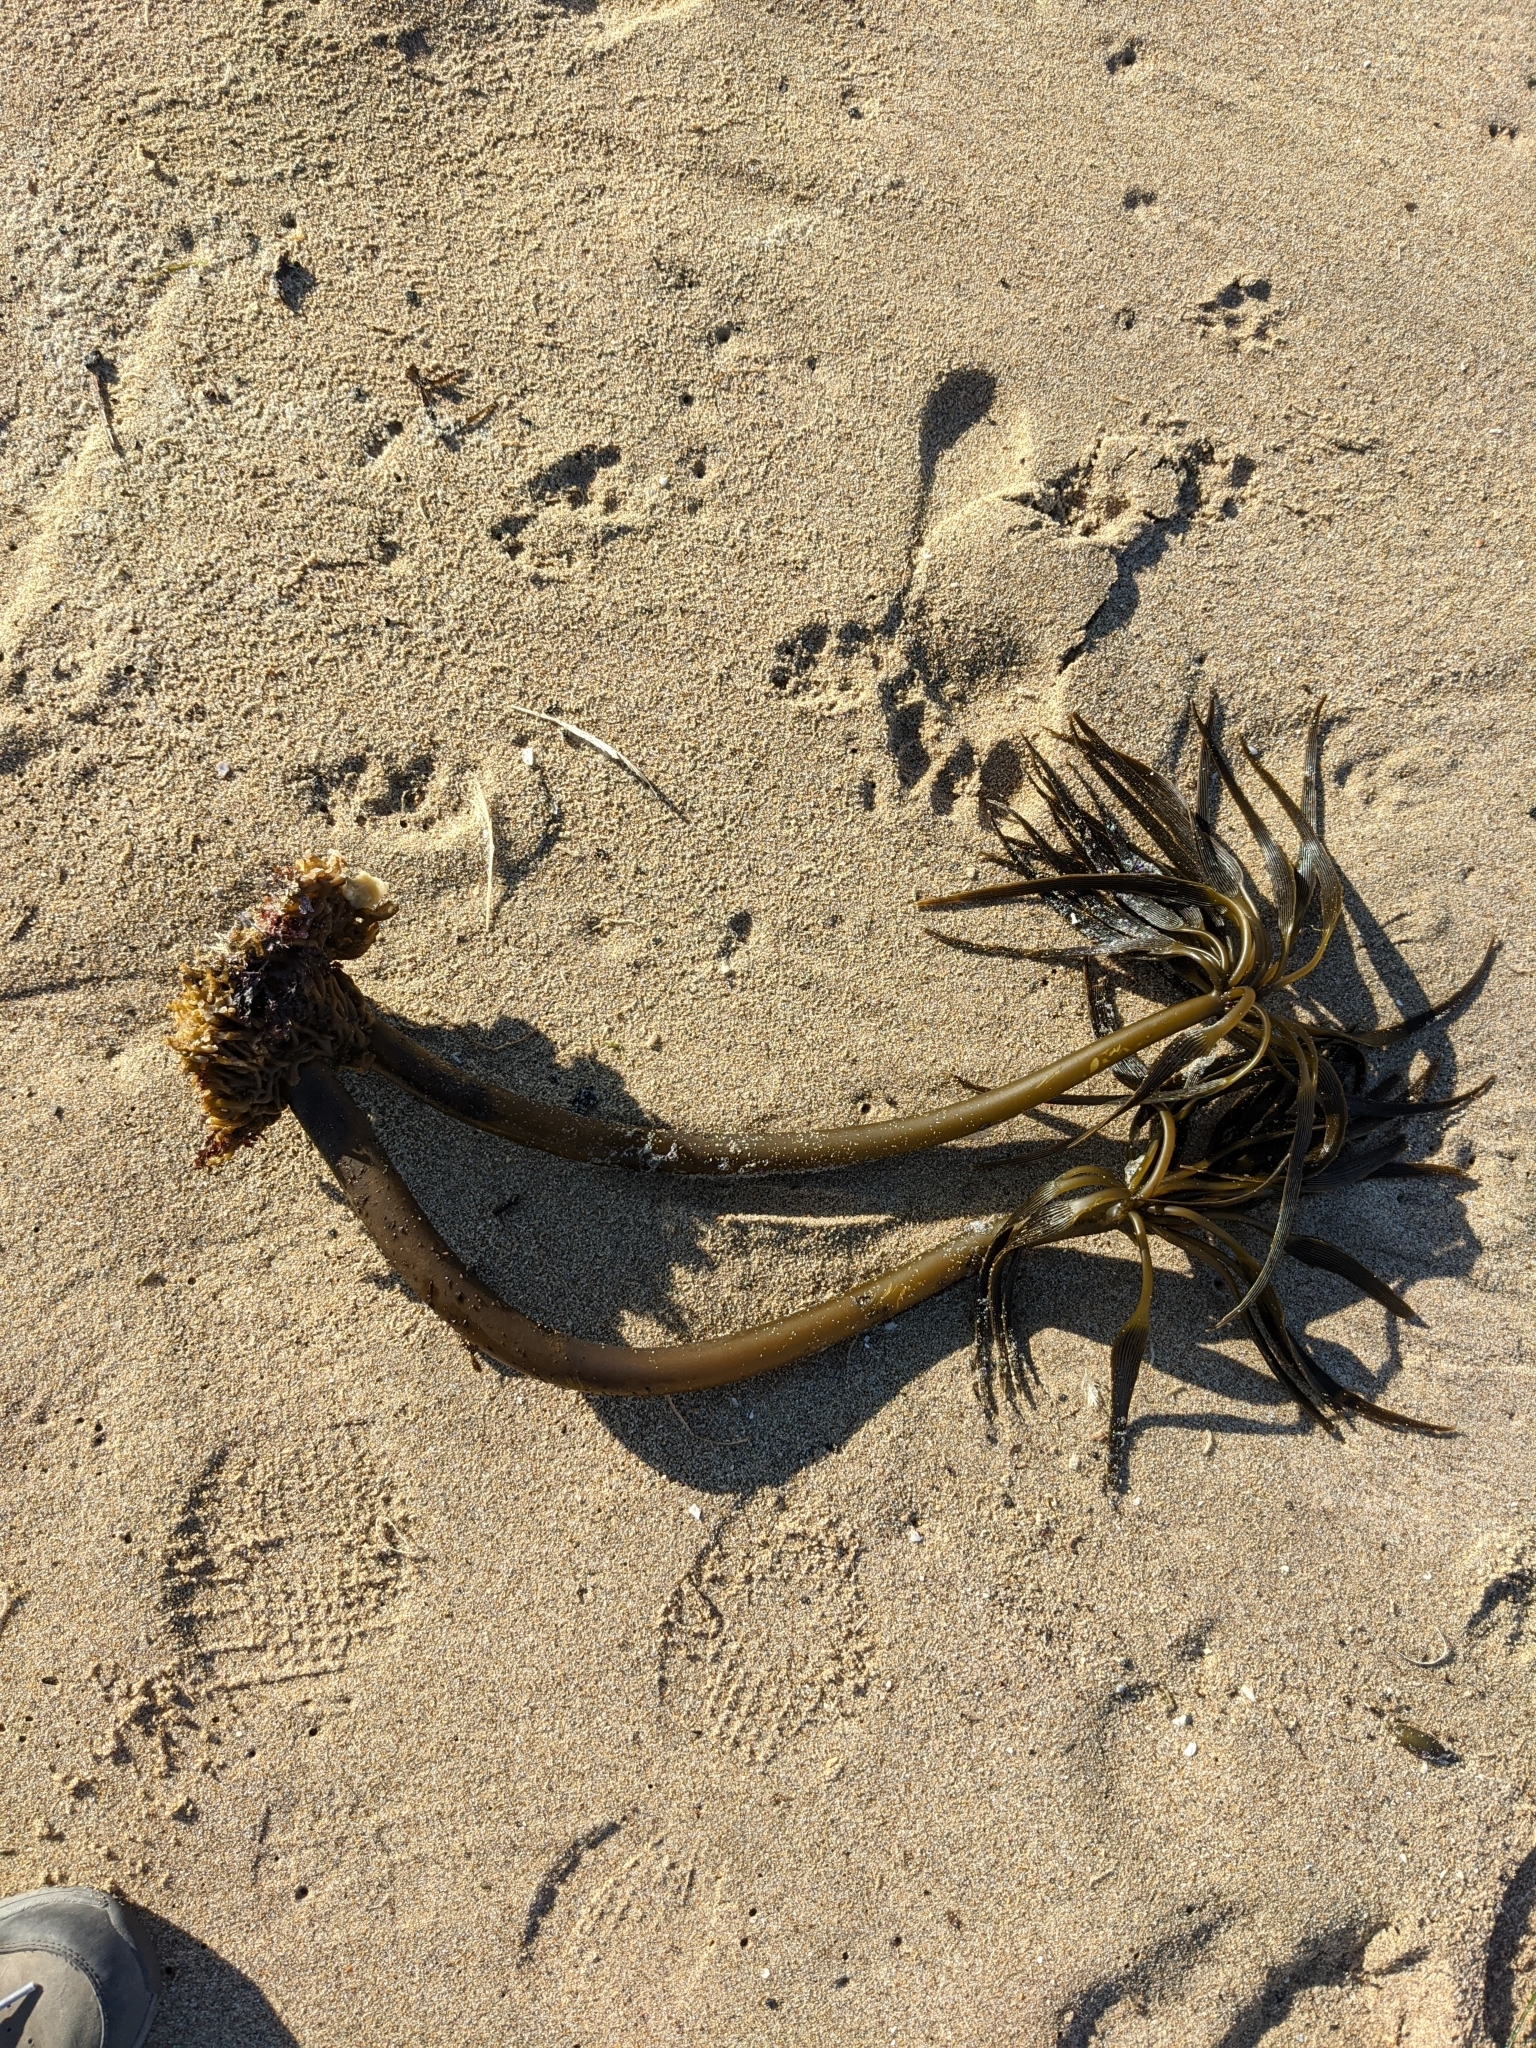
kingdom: Chromista
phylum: Ochrophyta
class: Phaeophyceae
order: Laminariales
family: Laminariaceae
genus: Postelsia
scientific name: Postelsia palmiformis
